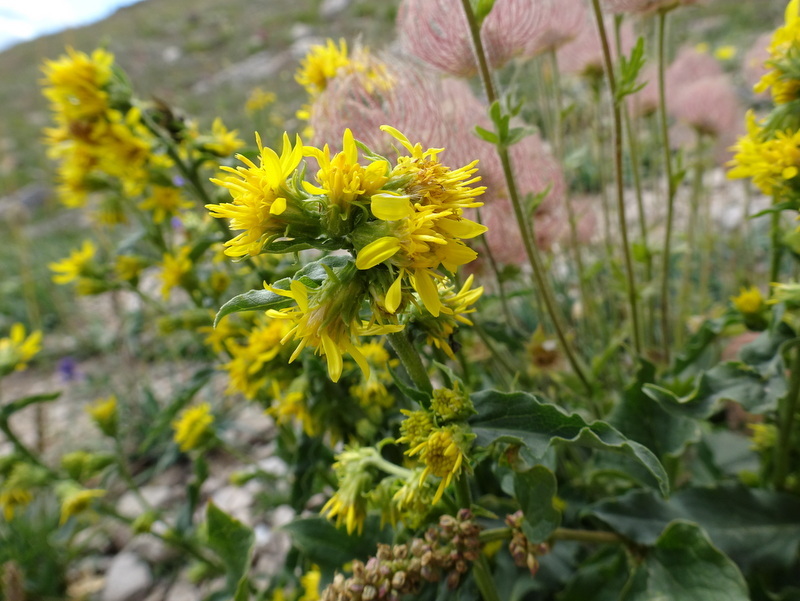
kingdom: Plantae
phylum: Tracheophyta
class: Magnoliopsida
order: Asterales
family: Asteraceae
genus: Solidago
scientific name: Solidago virgaurea
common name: Goldenrod
